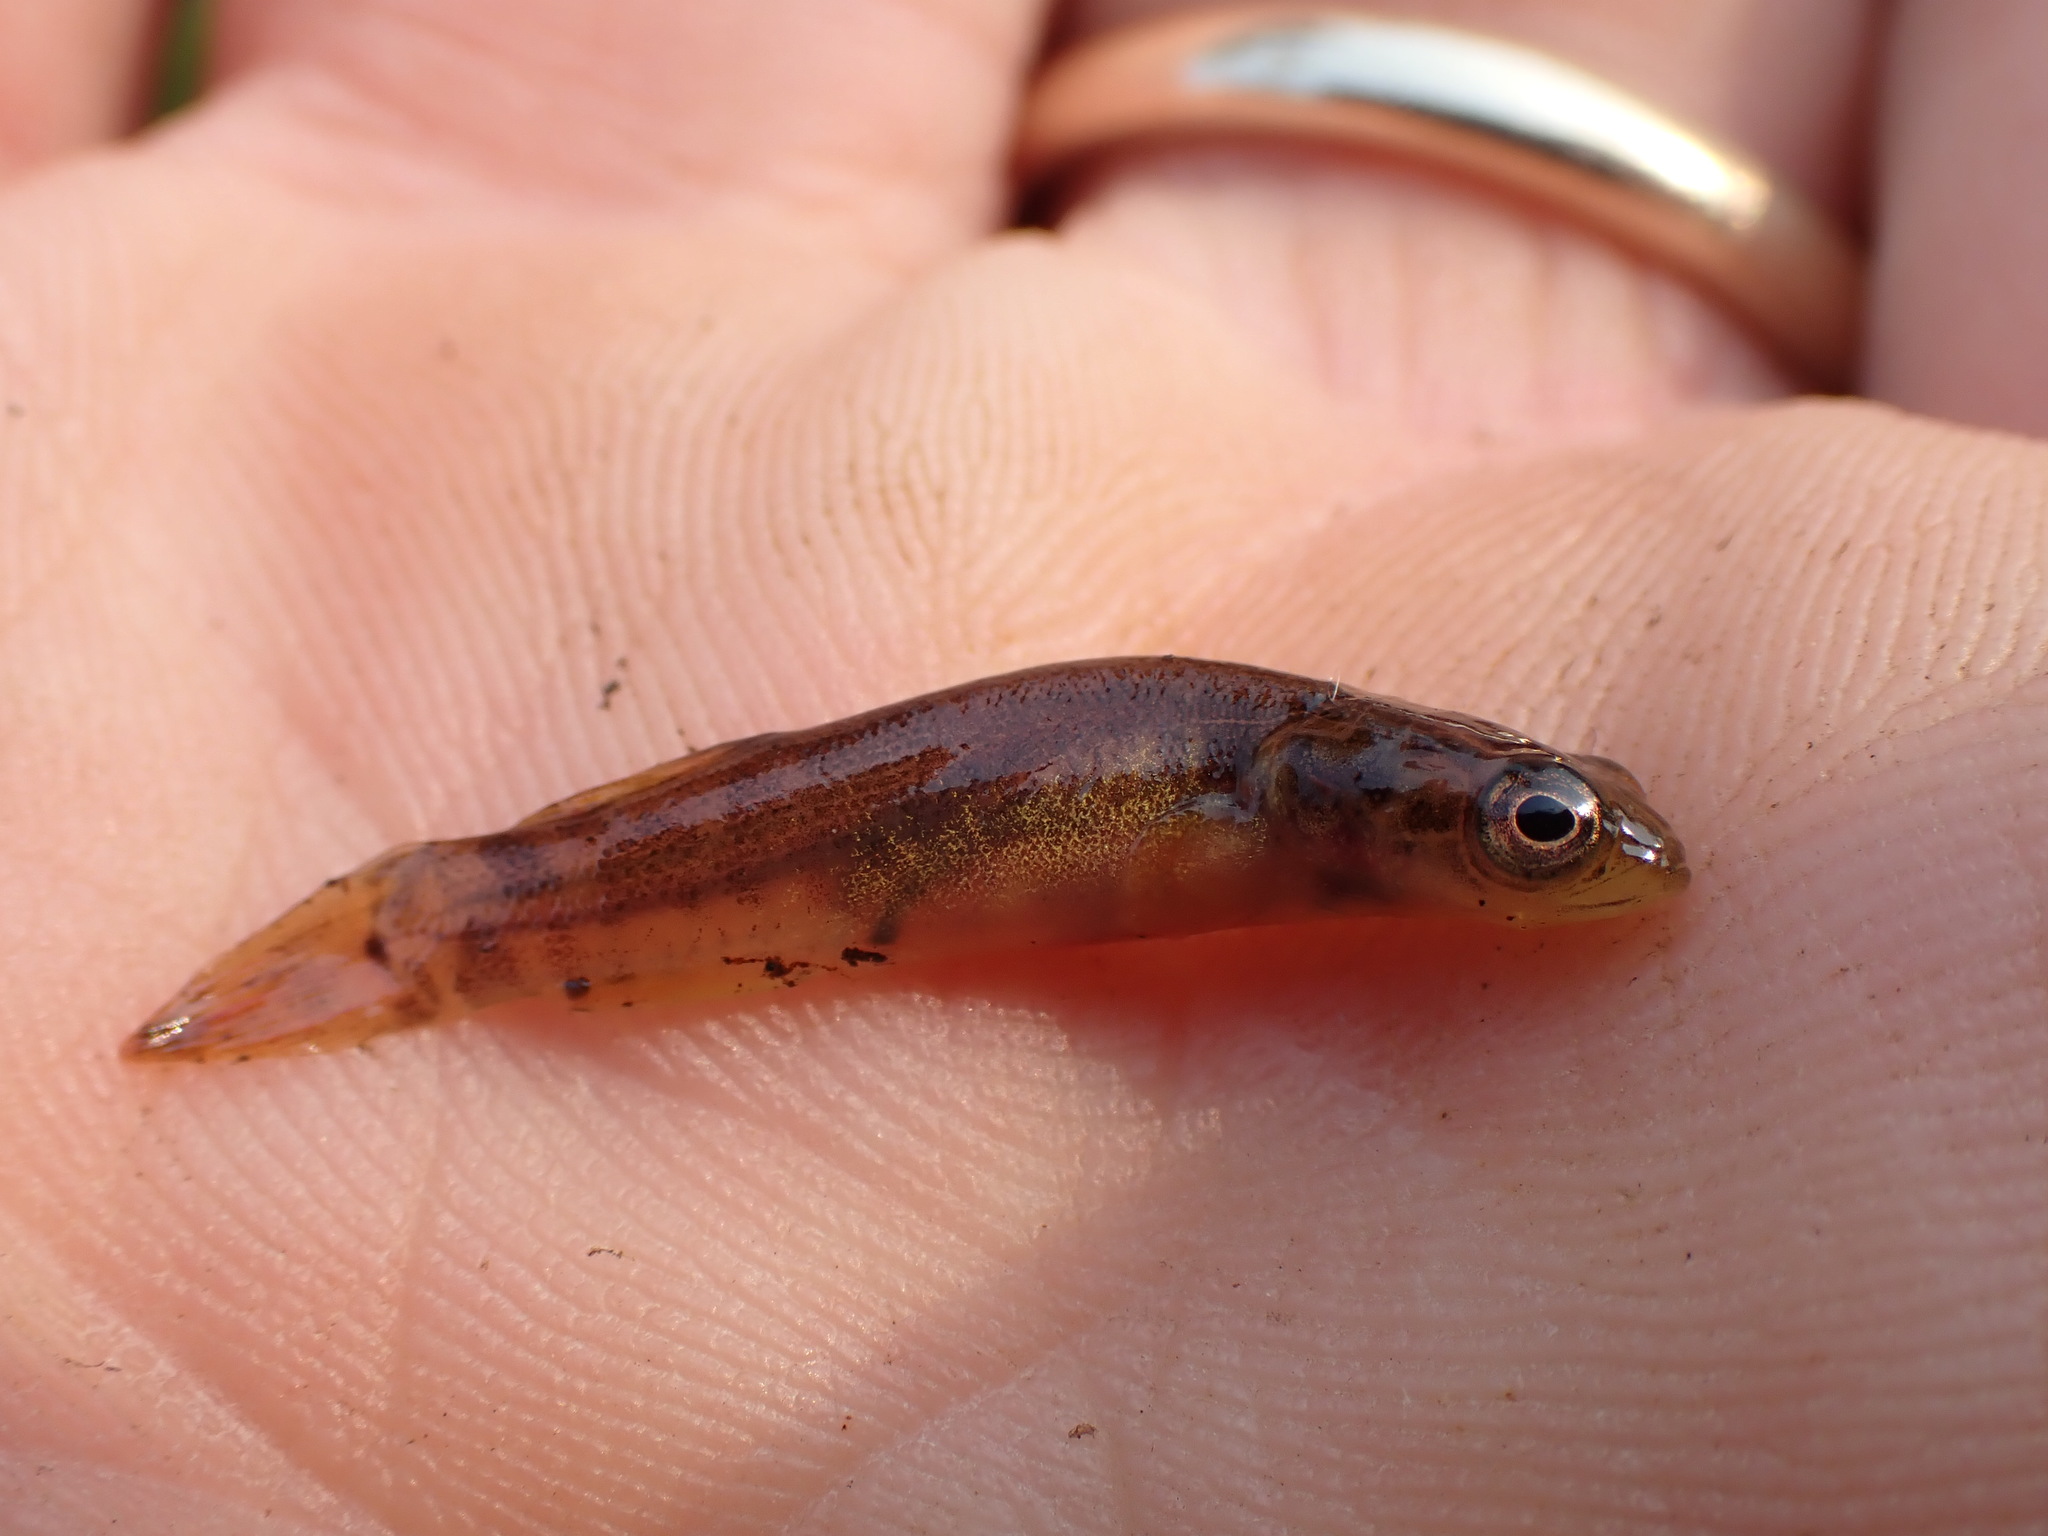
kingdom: Animalia
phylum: Chordata
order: Esociformes
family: Umbridae
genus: Dallia
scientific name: Dallia pectoralis
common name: Alaska blackfish
